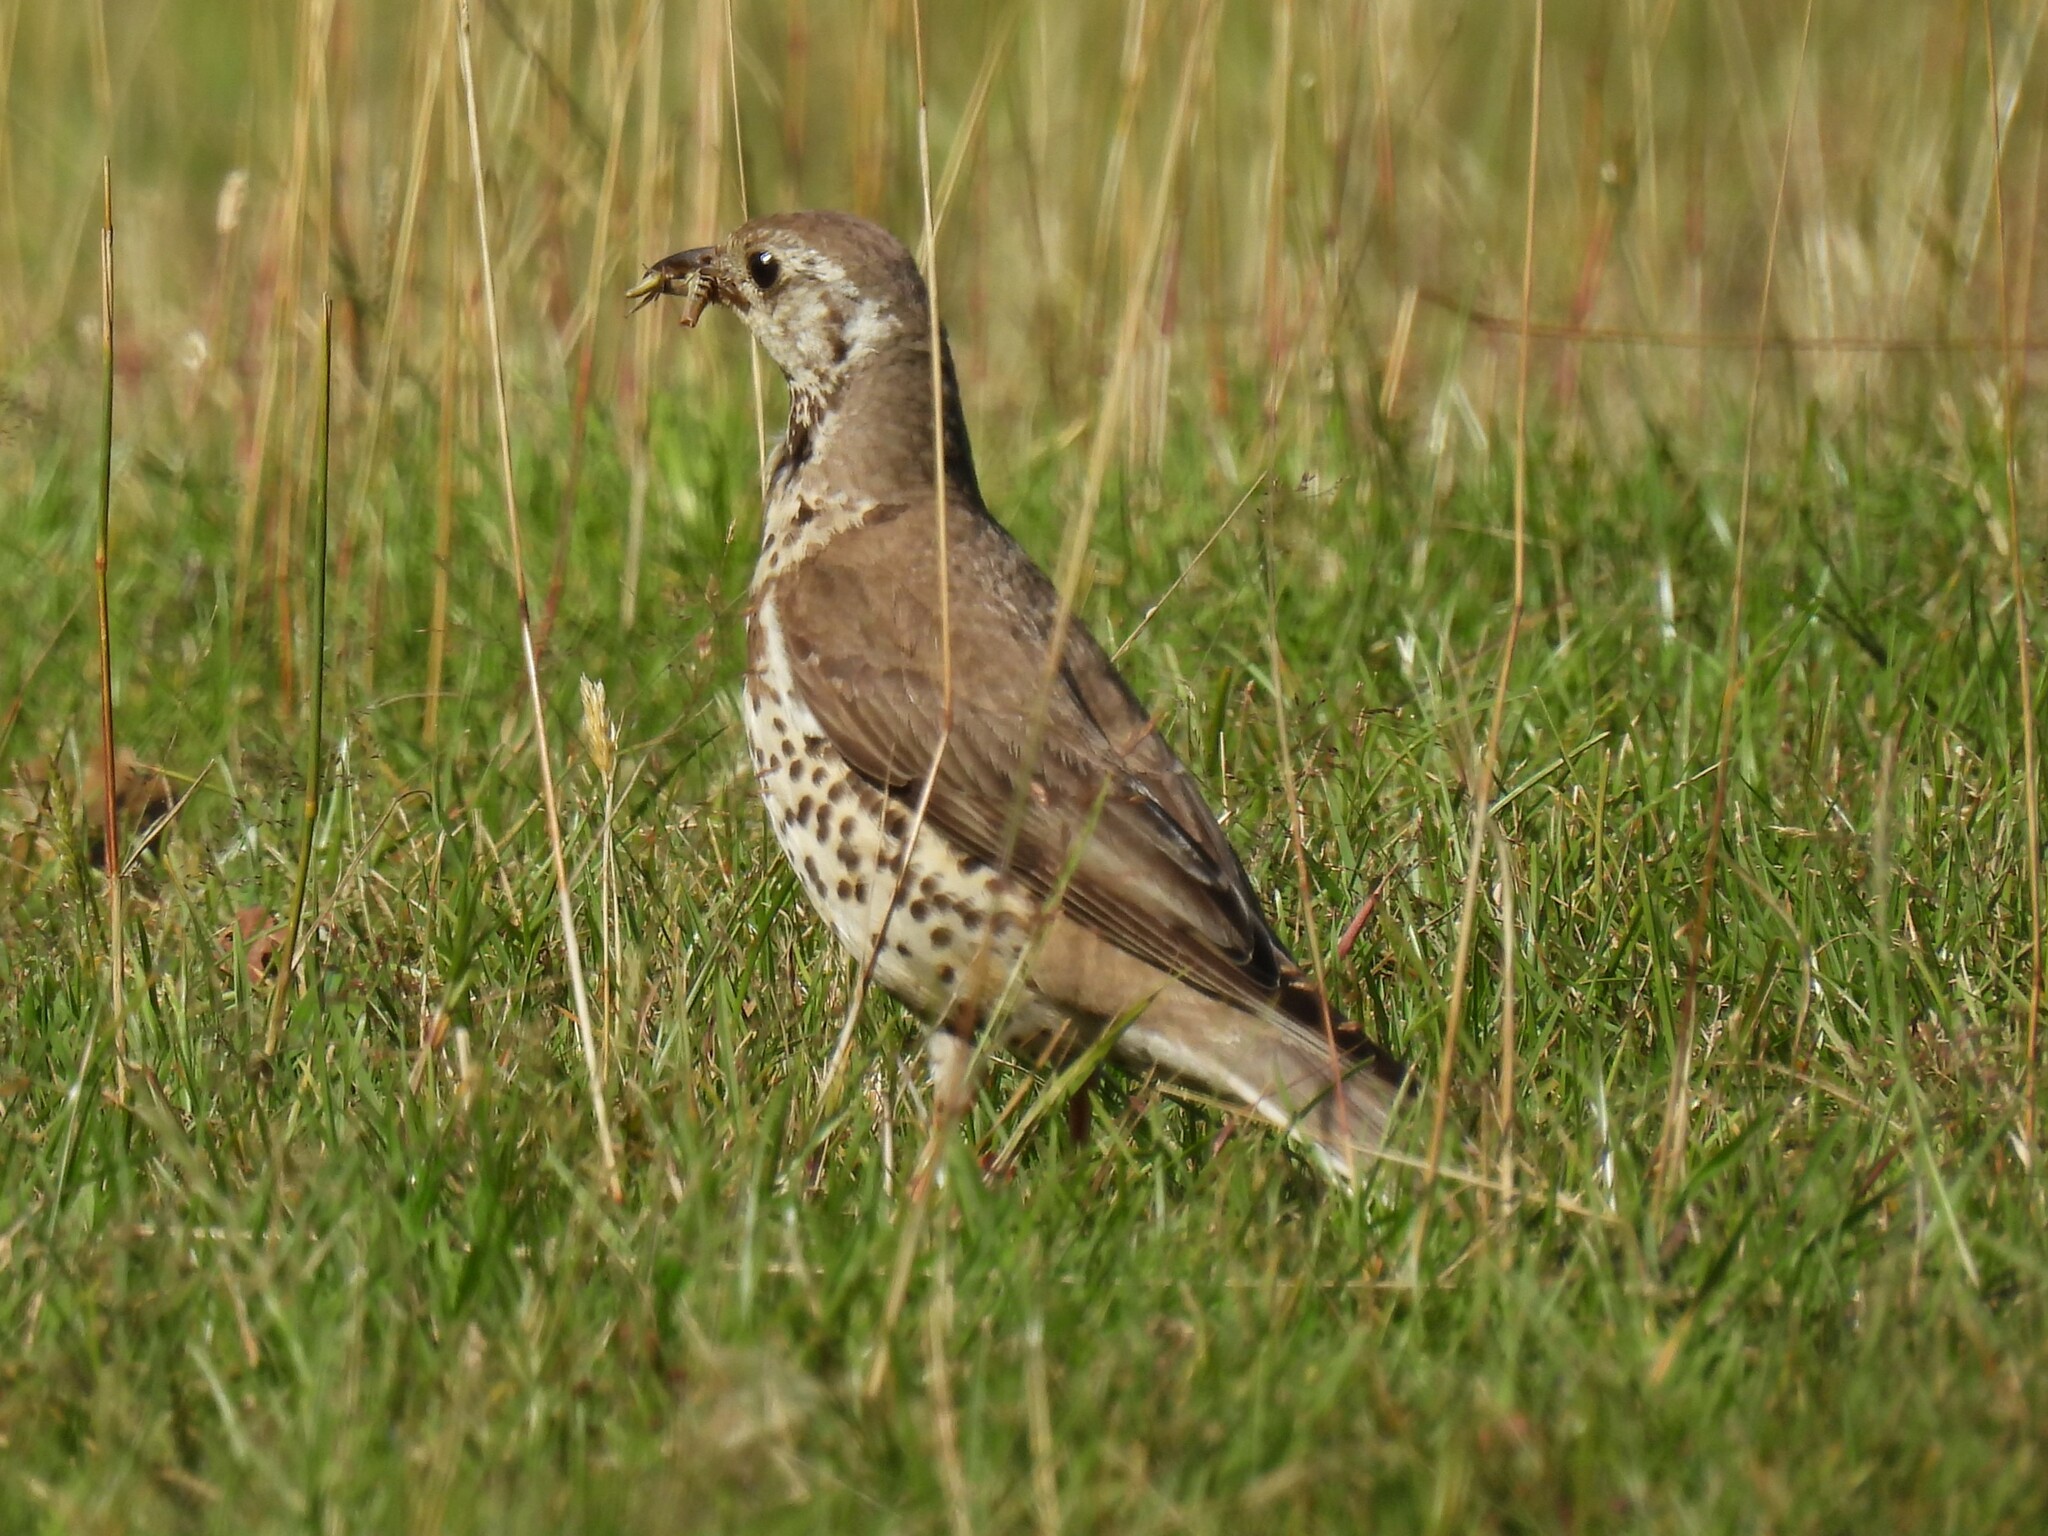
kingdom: Animalia
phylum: Chordata
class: Aves
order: Passeriformes
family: Turdidae
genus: Turdus
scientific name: Turdus viscivorus
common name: Mistle thrush
